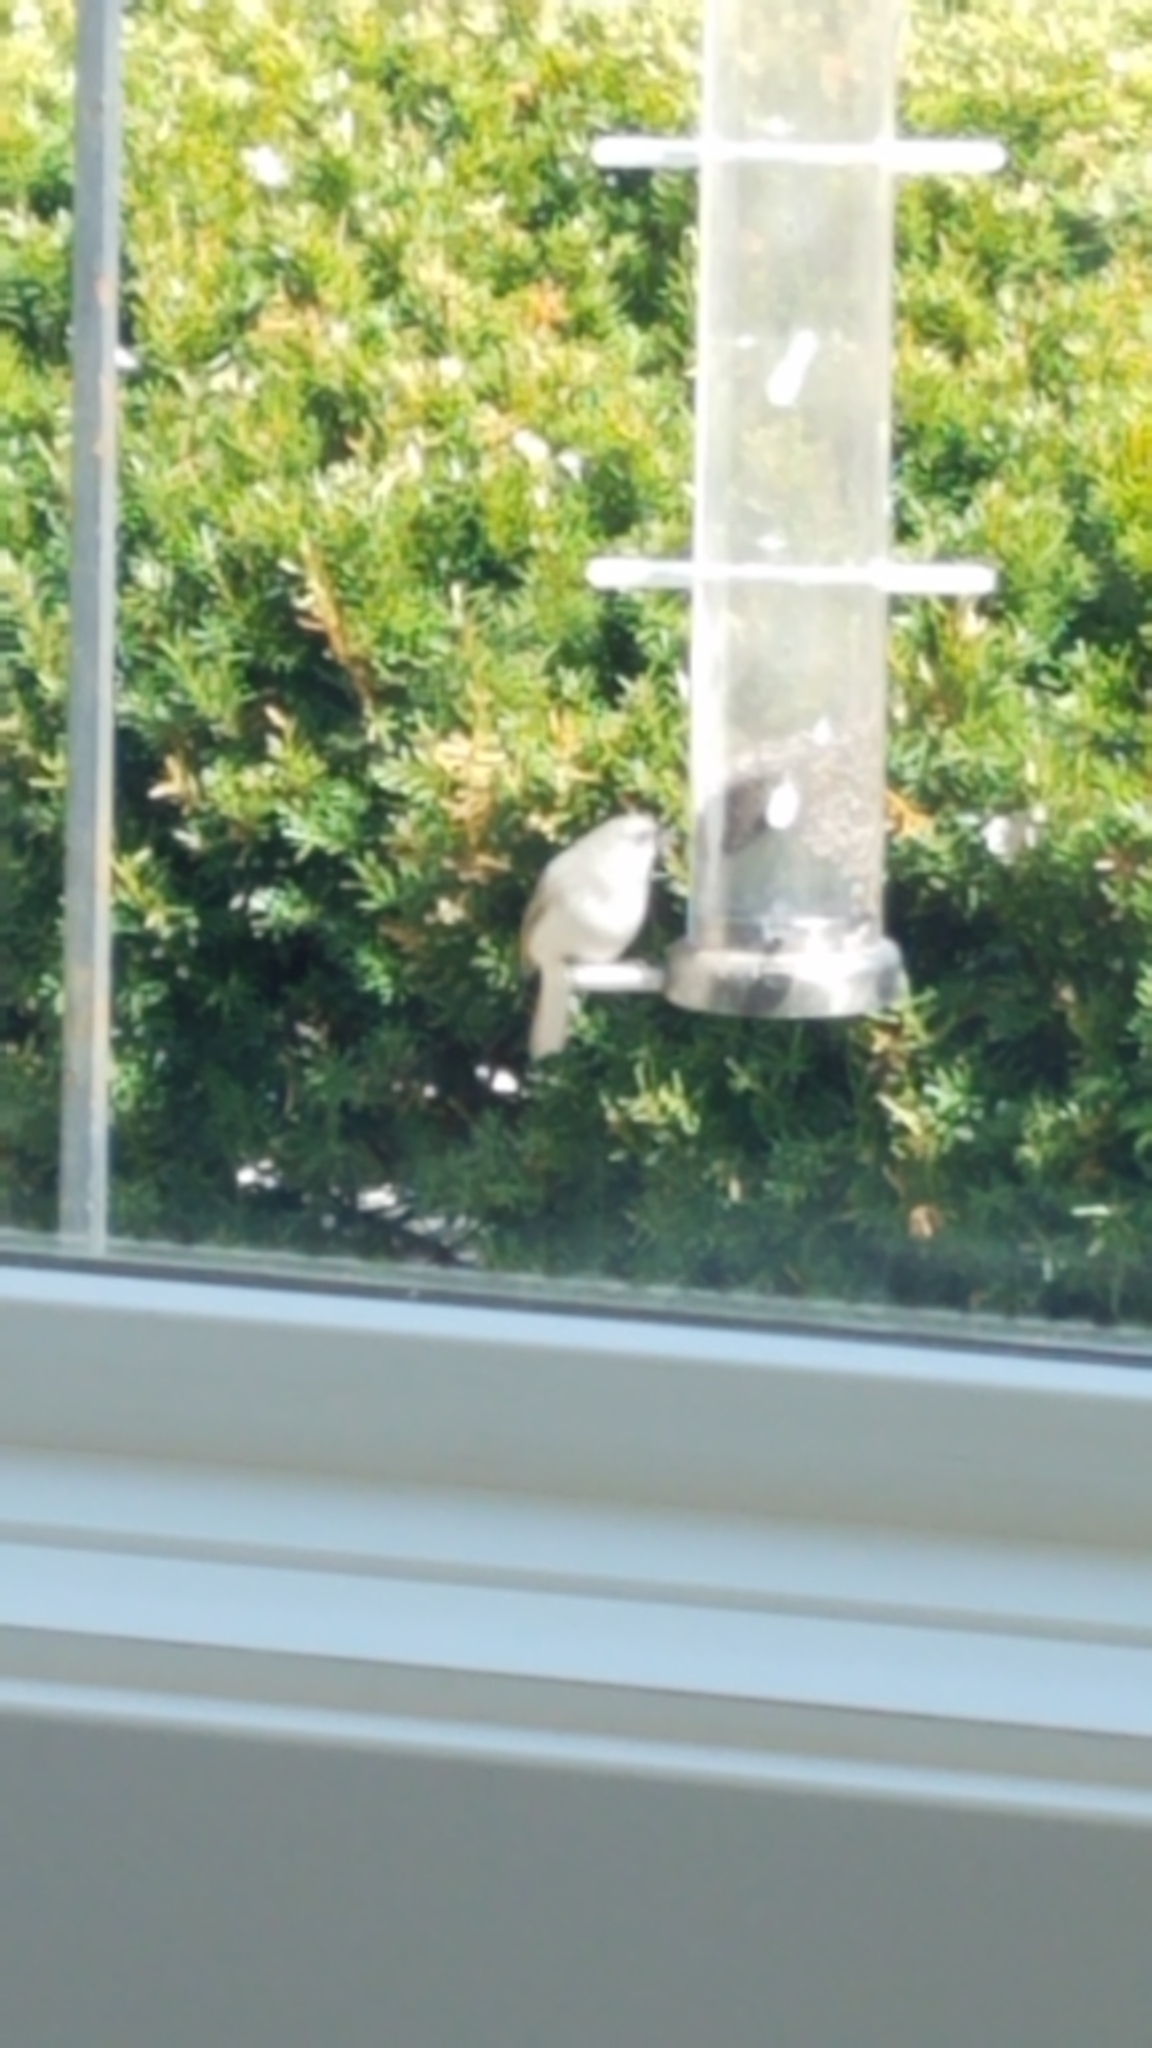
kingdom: Animalia
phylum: Chordata
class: Aves
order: Passeriformes
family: Passerellidae
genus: Junco
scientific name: Junco hyemalis
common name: Dark-eyed junco
